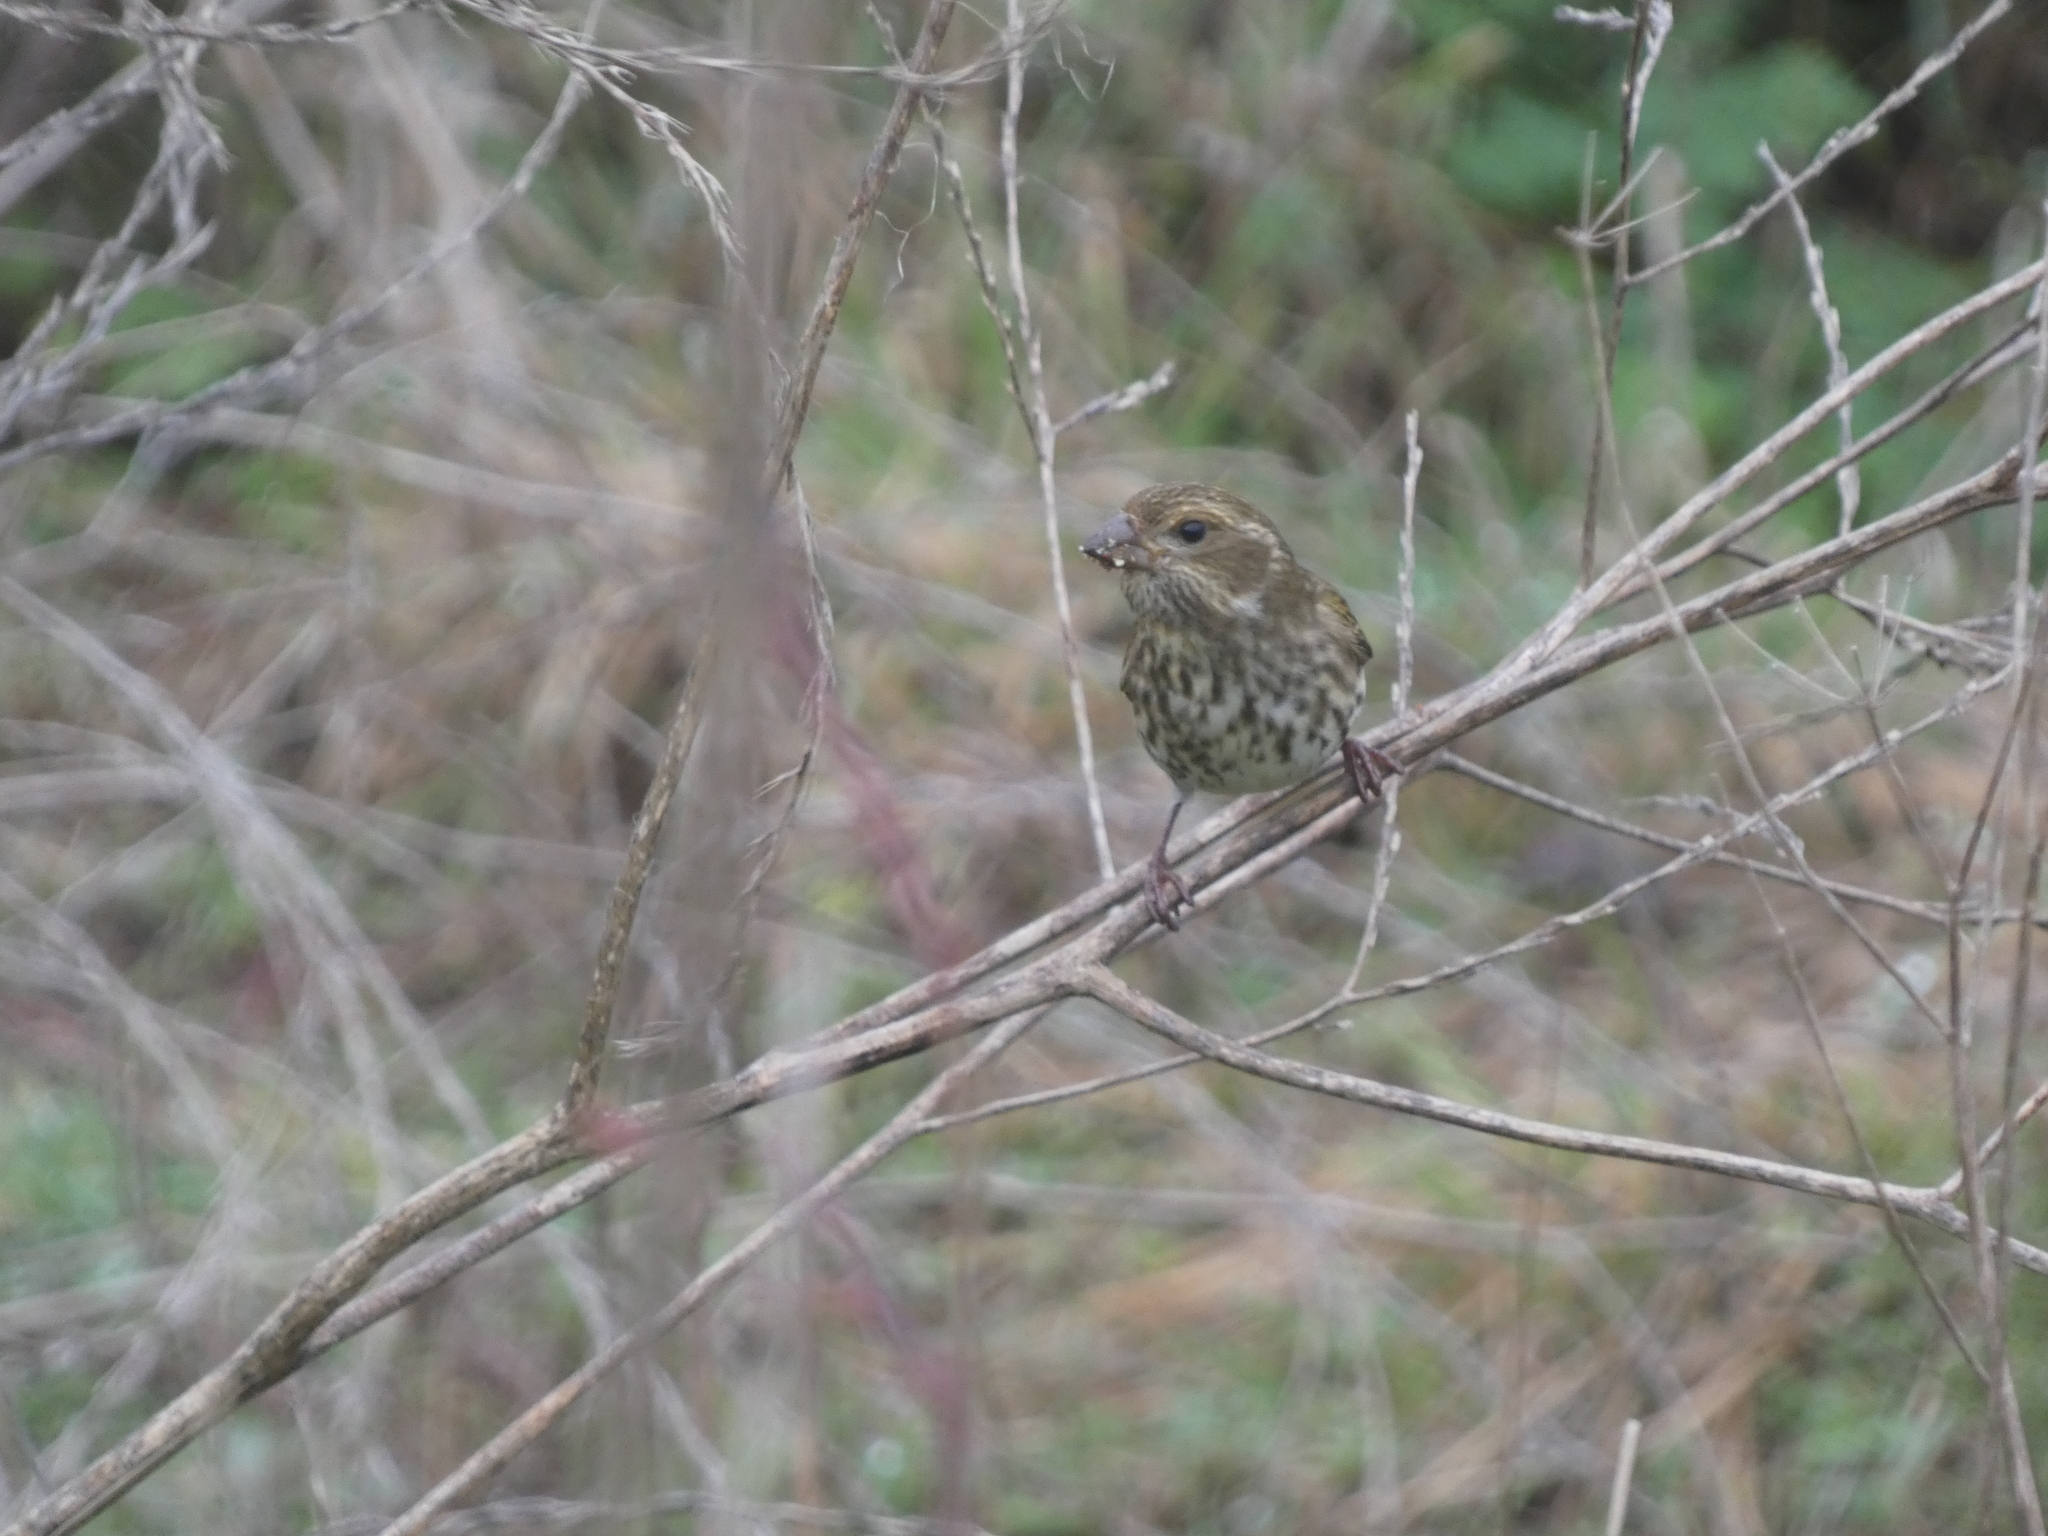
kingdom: Animalia
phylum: Chordata
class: Aves
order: Passeriformes
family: Fringillidae
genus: Haemorhous
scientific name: Haemorhous purpureus
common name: Purple finch
